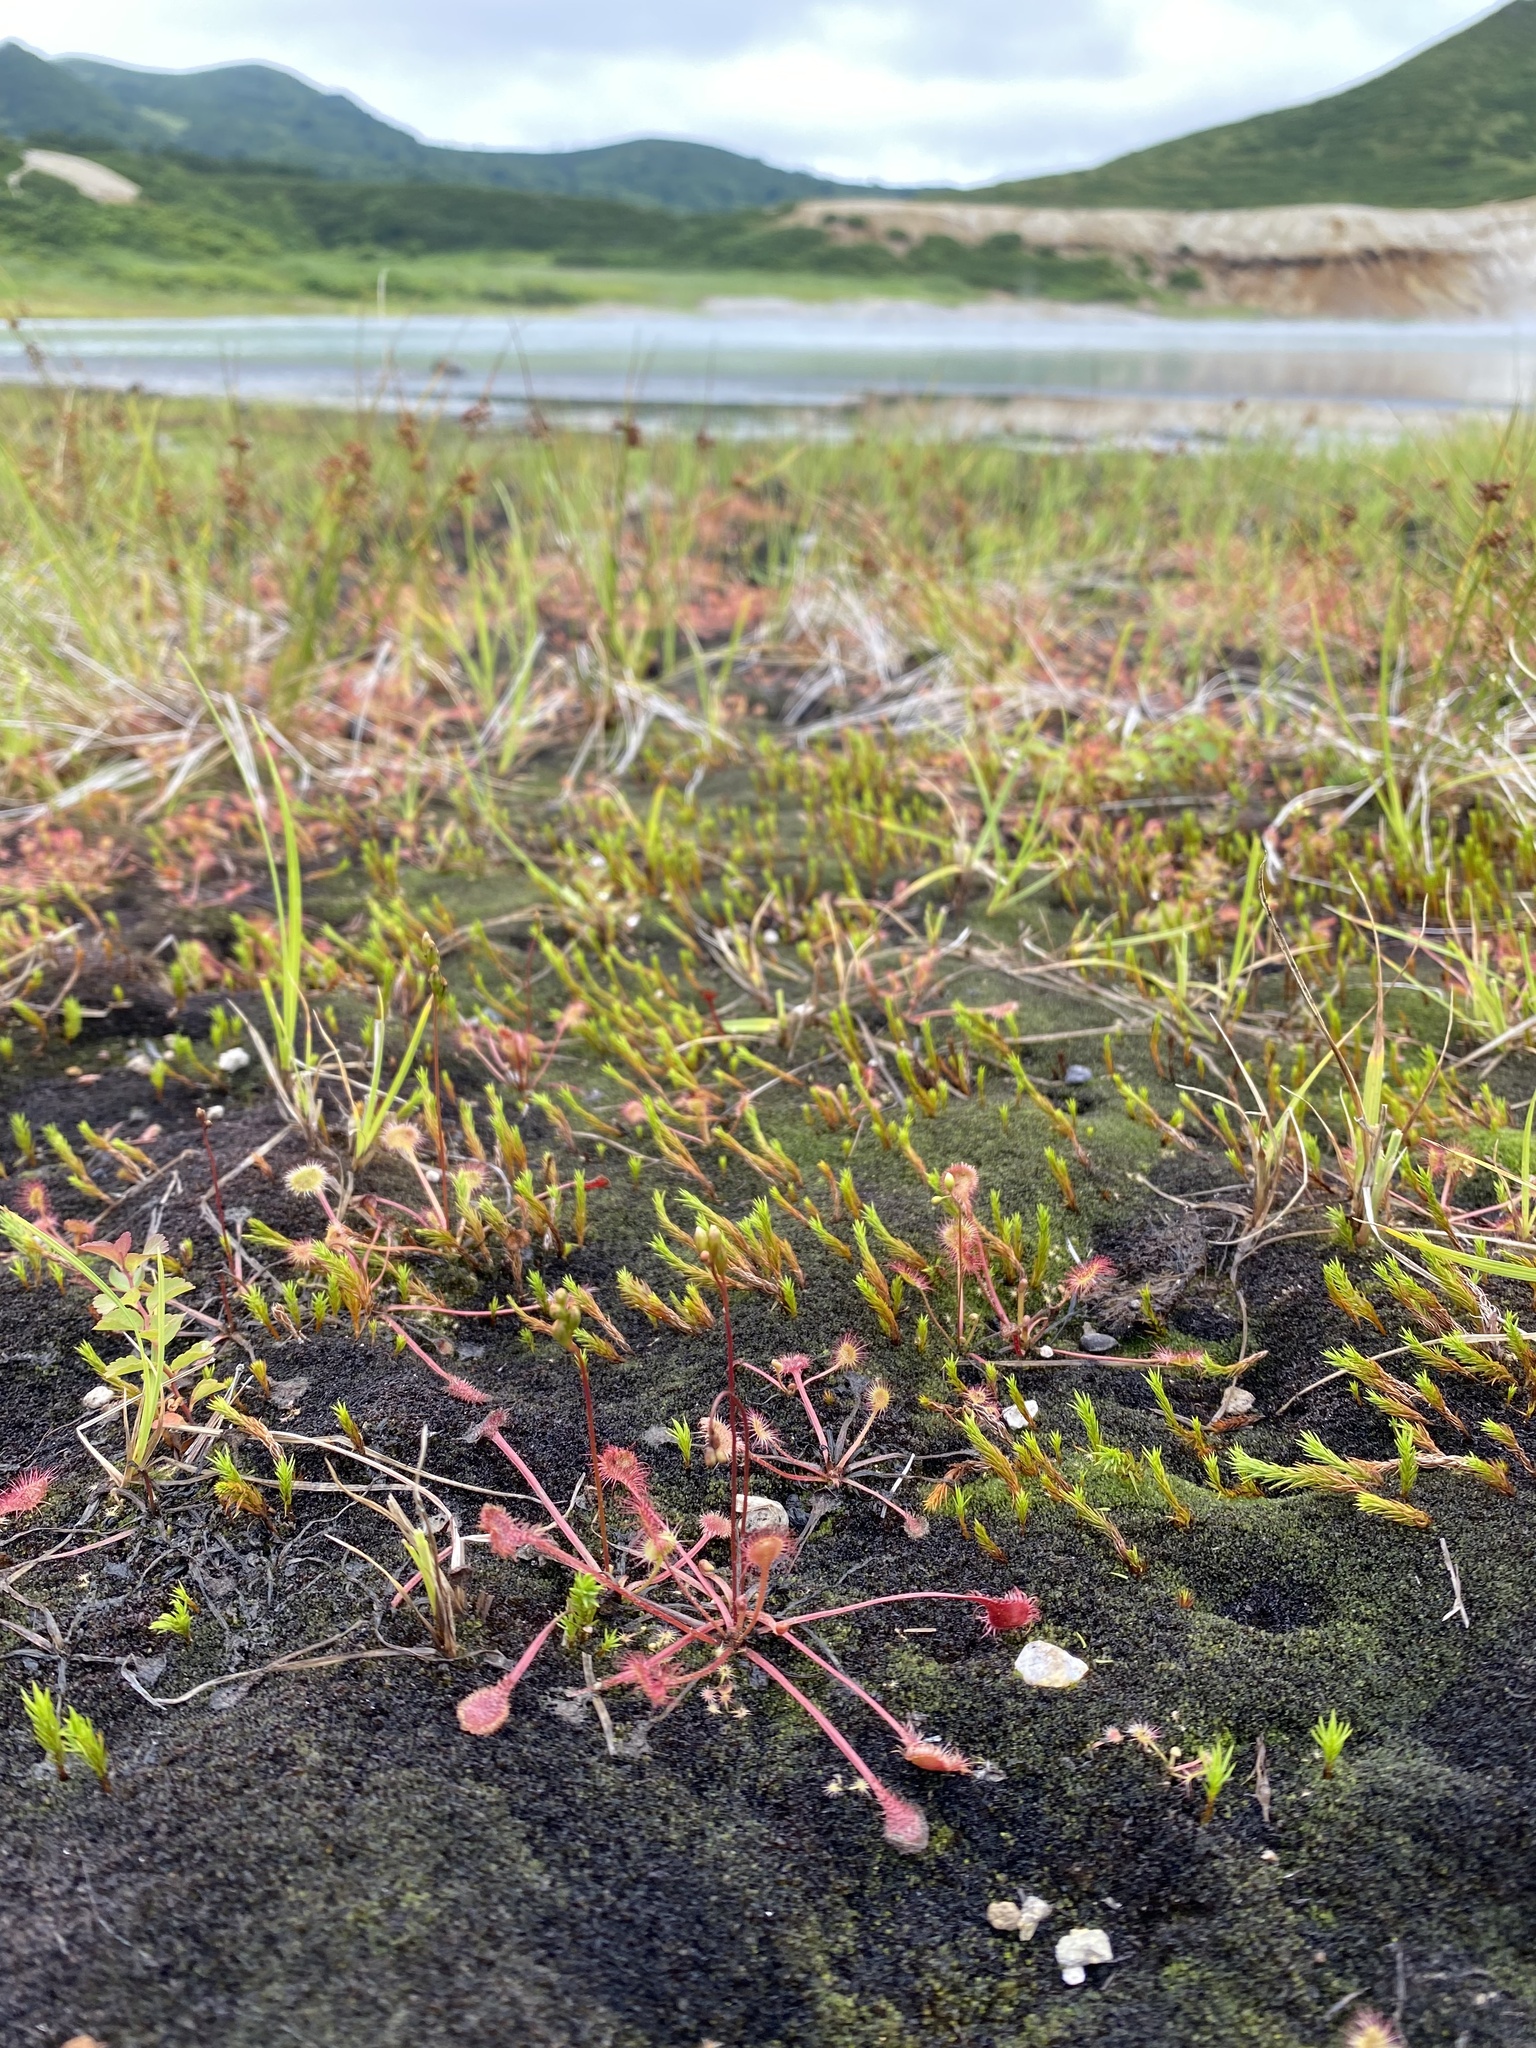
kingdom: Plantae
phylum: Tracheophyta
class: Magnoliopsida
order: Caryophyllales
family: Droseraceae
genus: Drosera
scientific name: Drosera rotundifolia
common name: Round-leaved sundew
